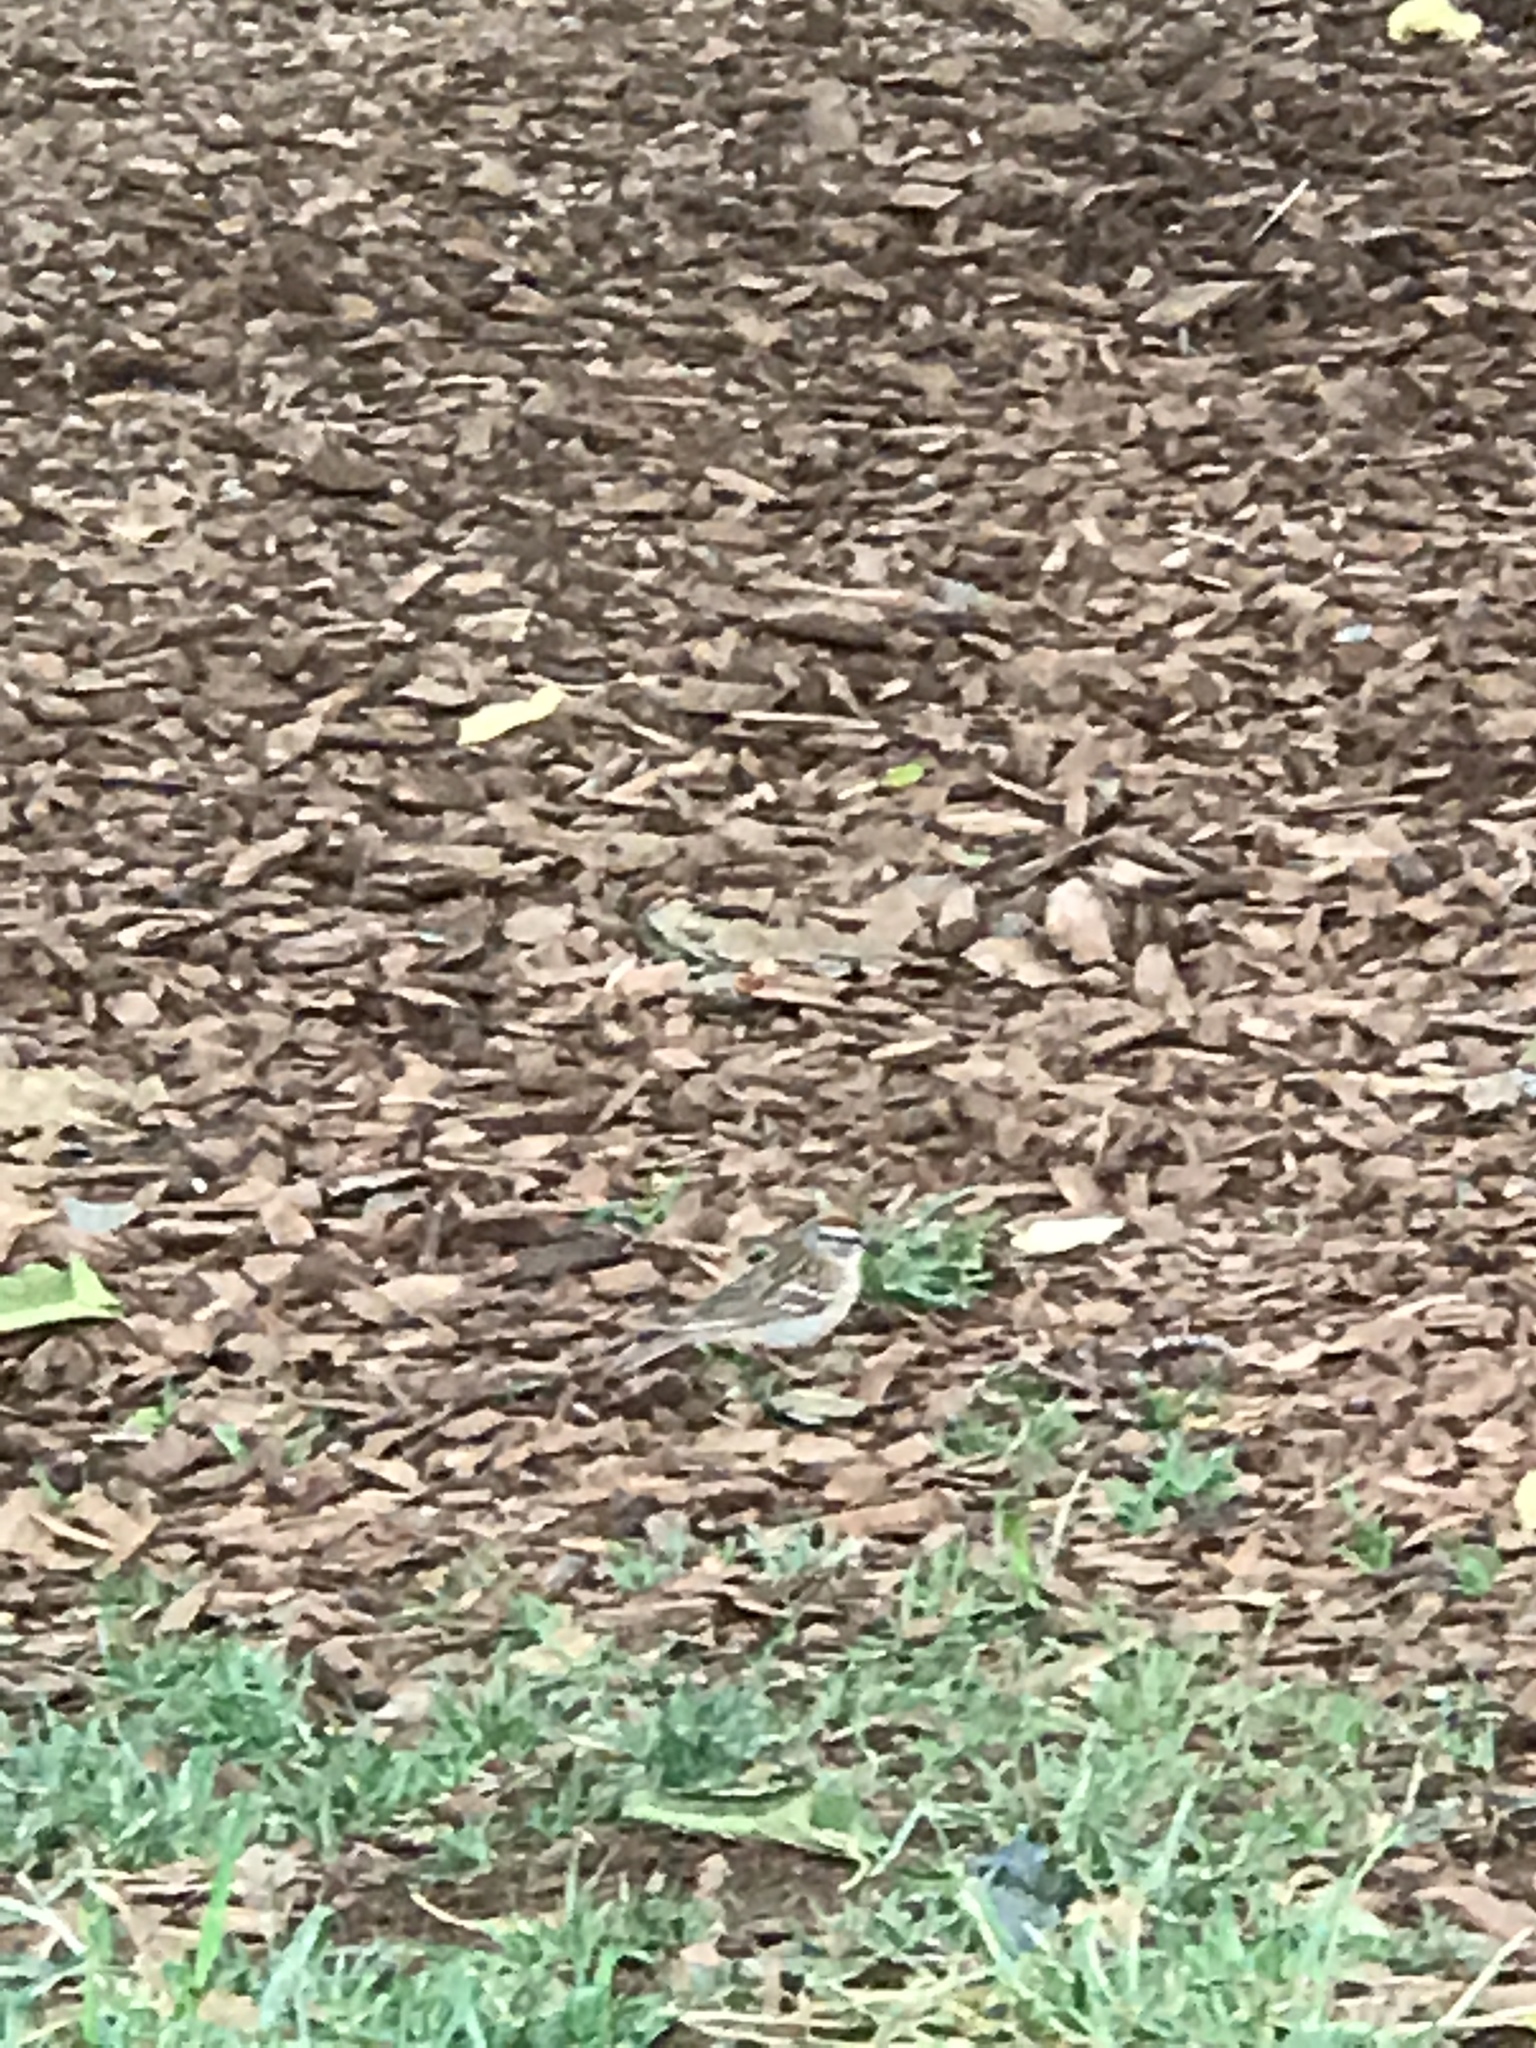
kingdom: Animalia
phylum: Chordata
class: Aves
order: Passeriformes
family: Passerellidae
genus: Spizella
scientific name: Spizella passerina
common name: Chipping sparrow
